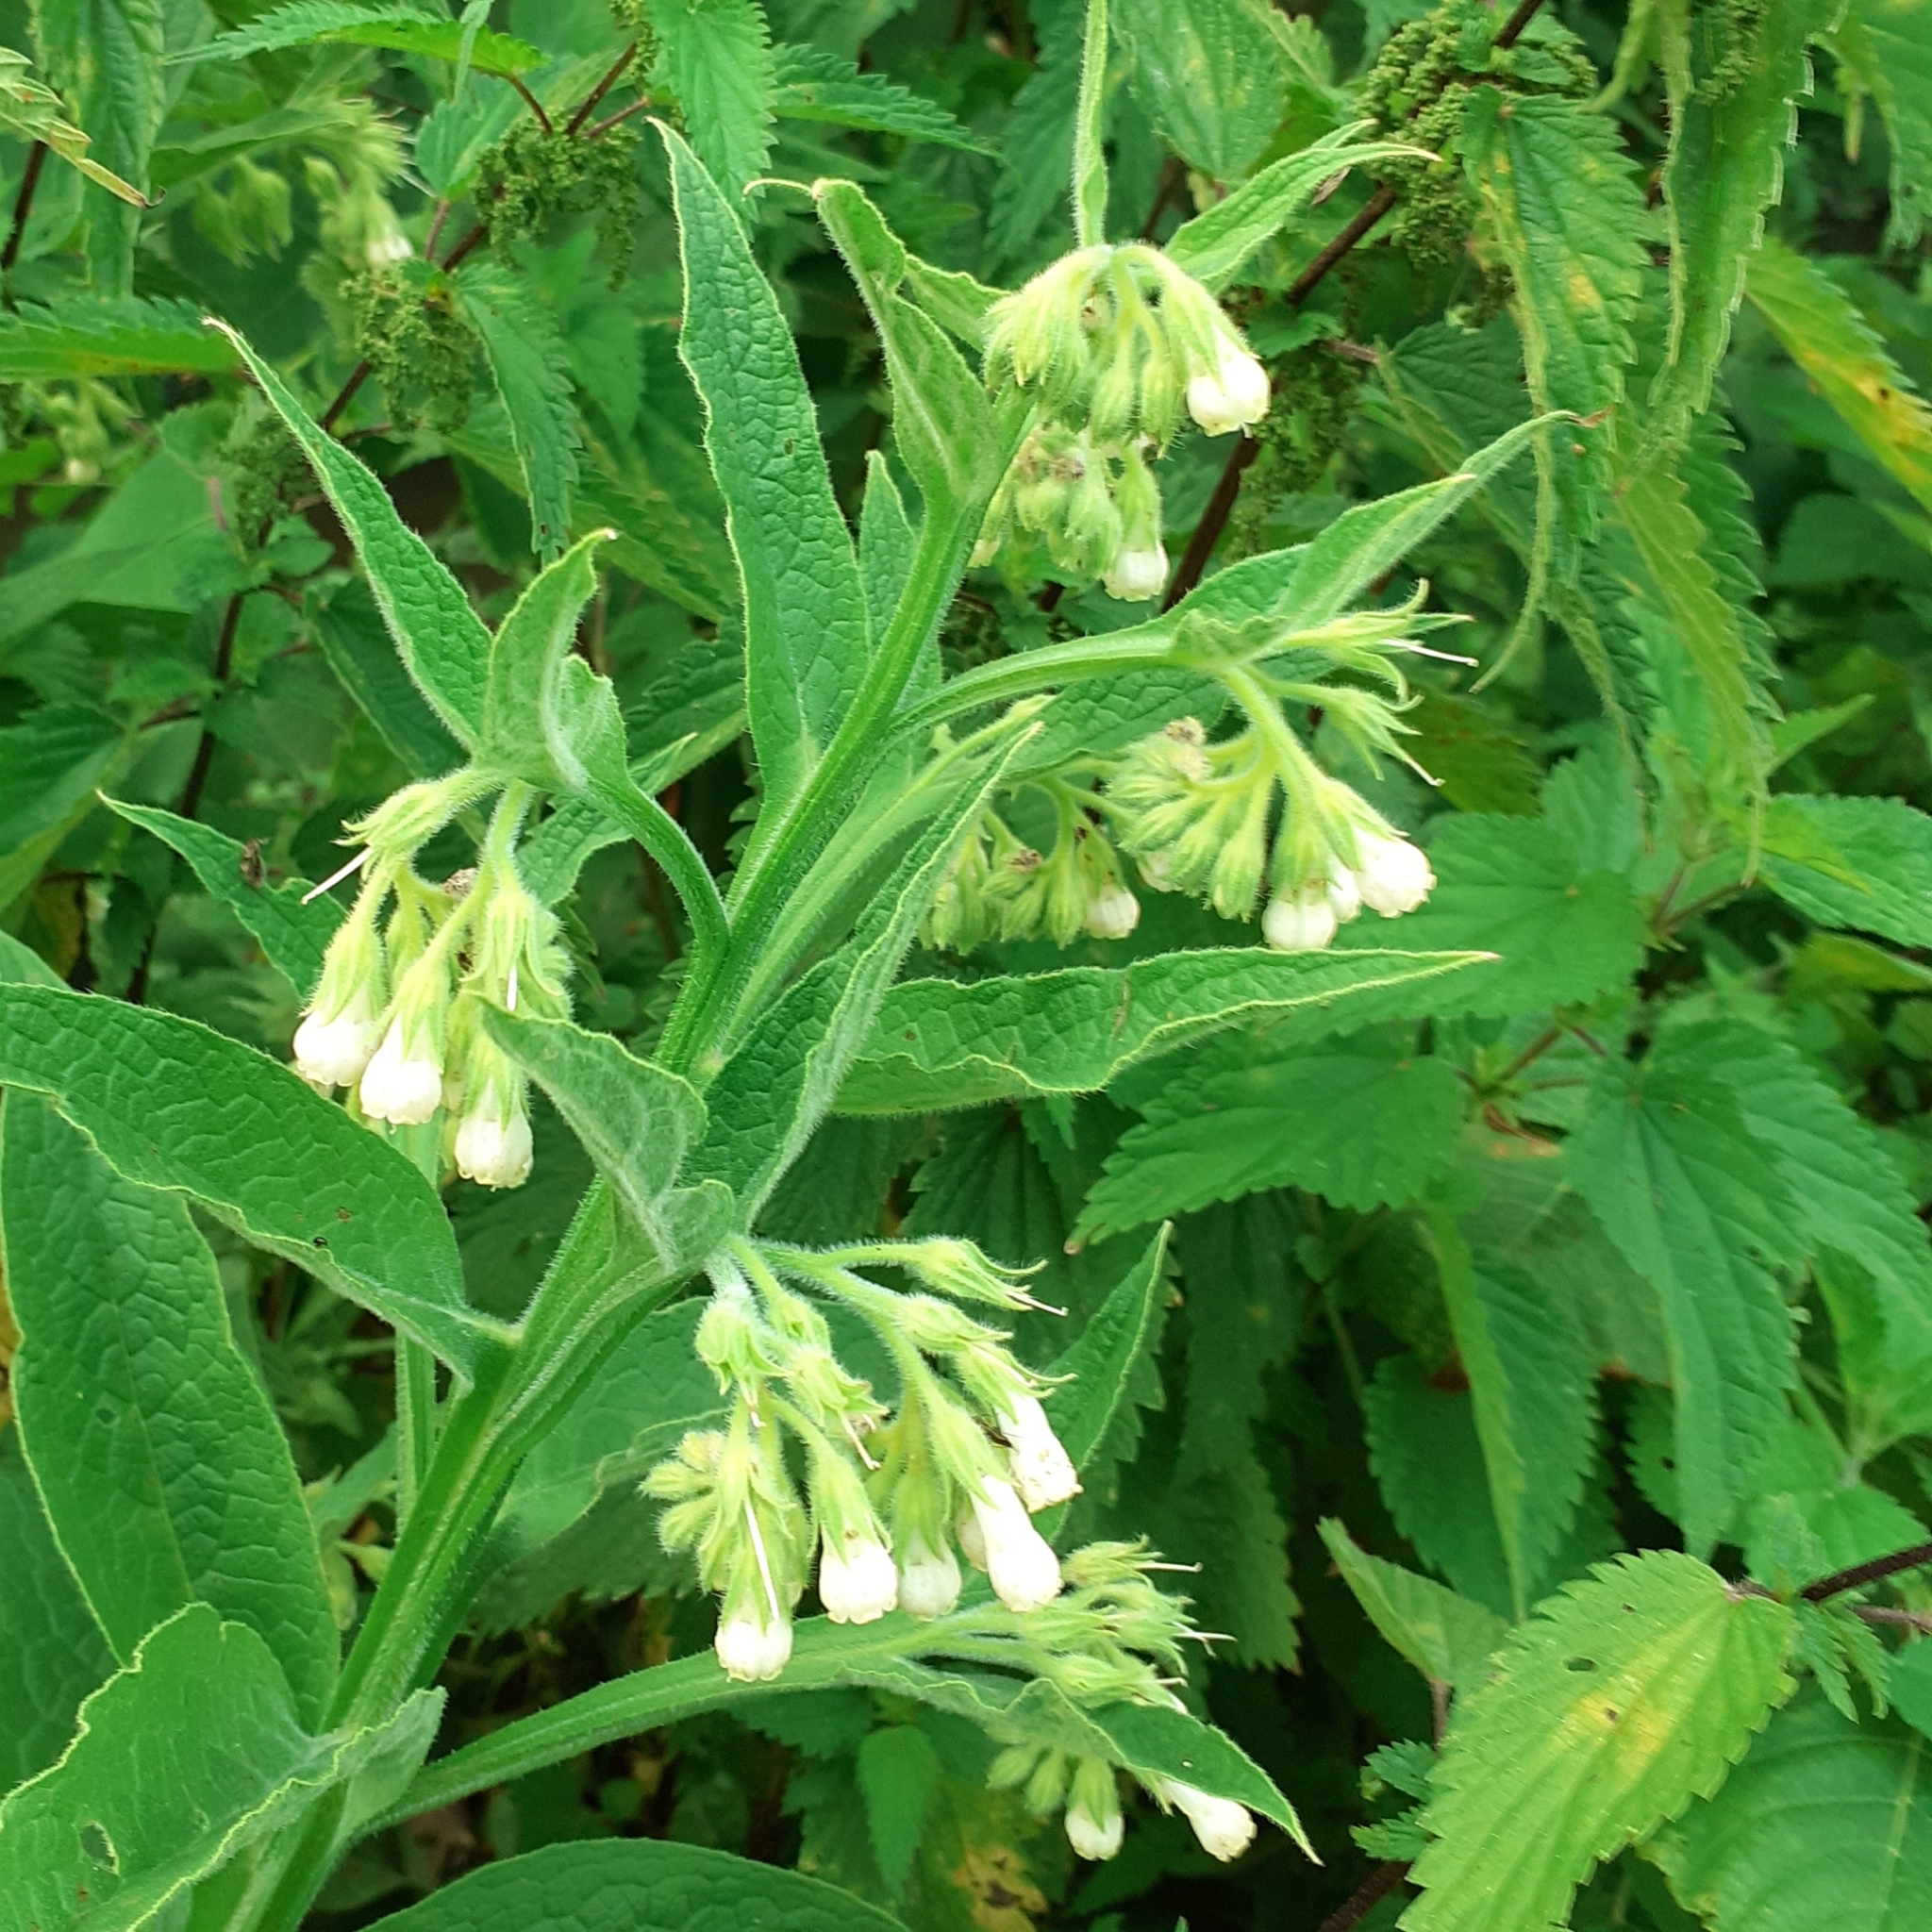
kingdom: Plantae
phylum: Tracheophyta
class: Magnoliopsida
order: Boraginales
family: Boraginaceae
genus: Symphytum
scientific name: Symphytum officinale
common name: Common comfrey
